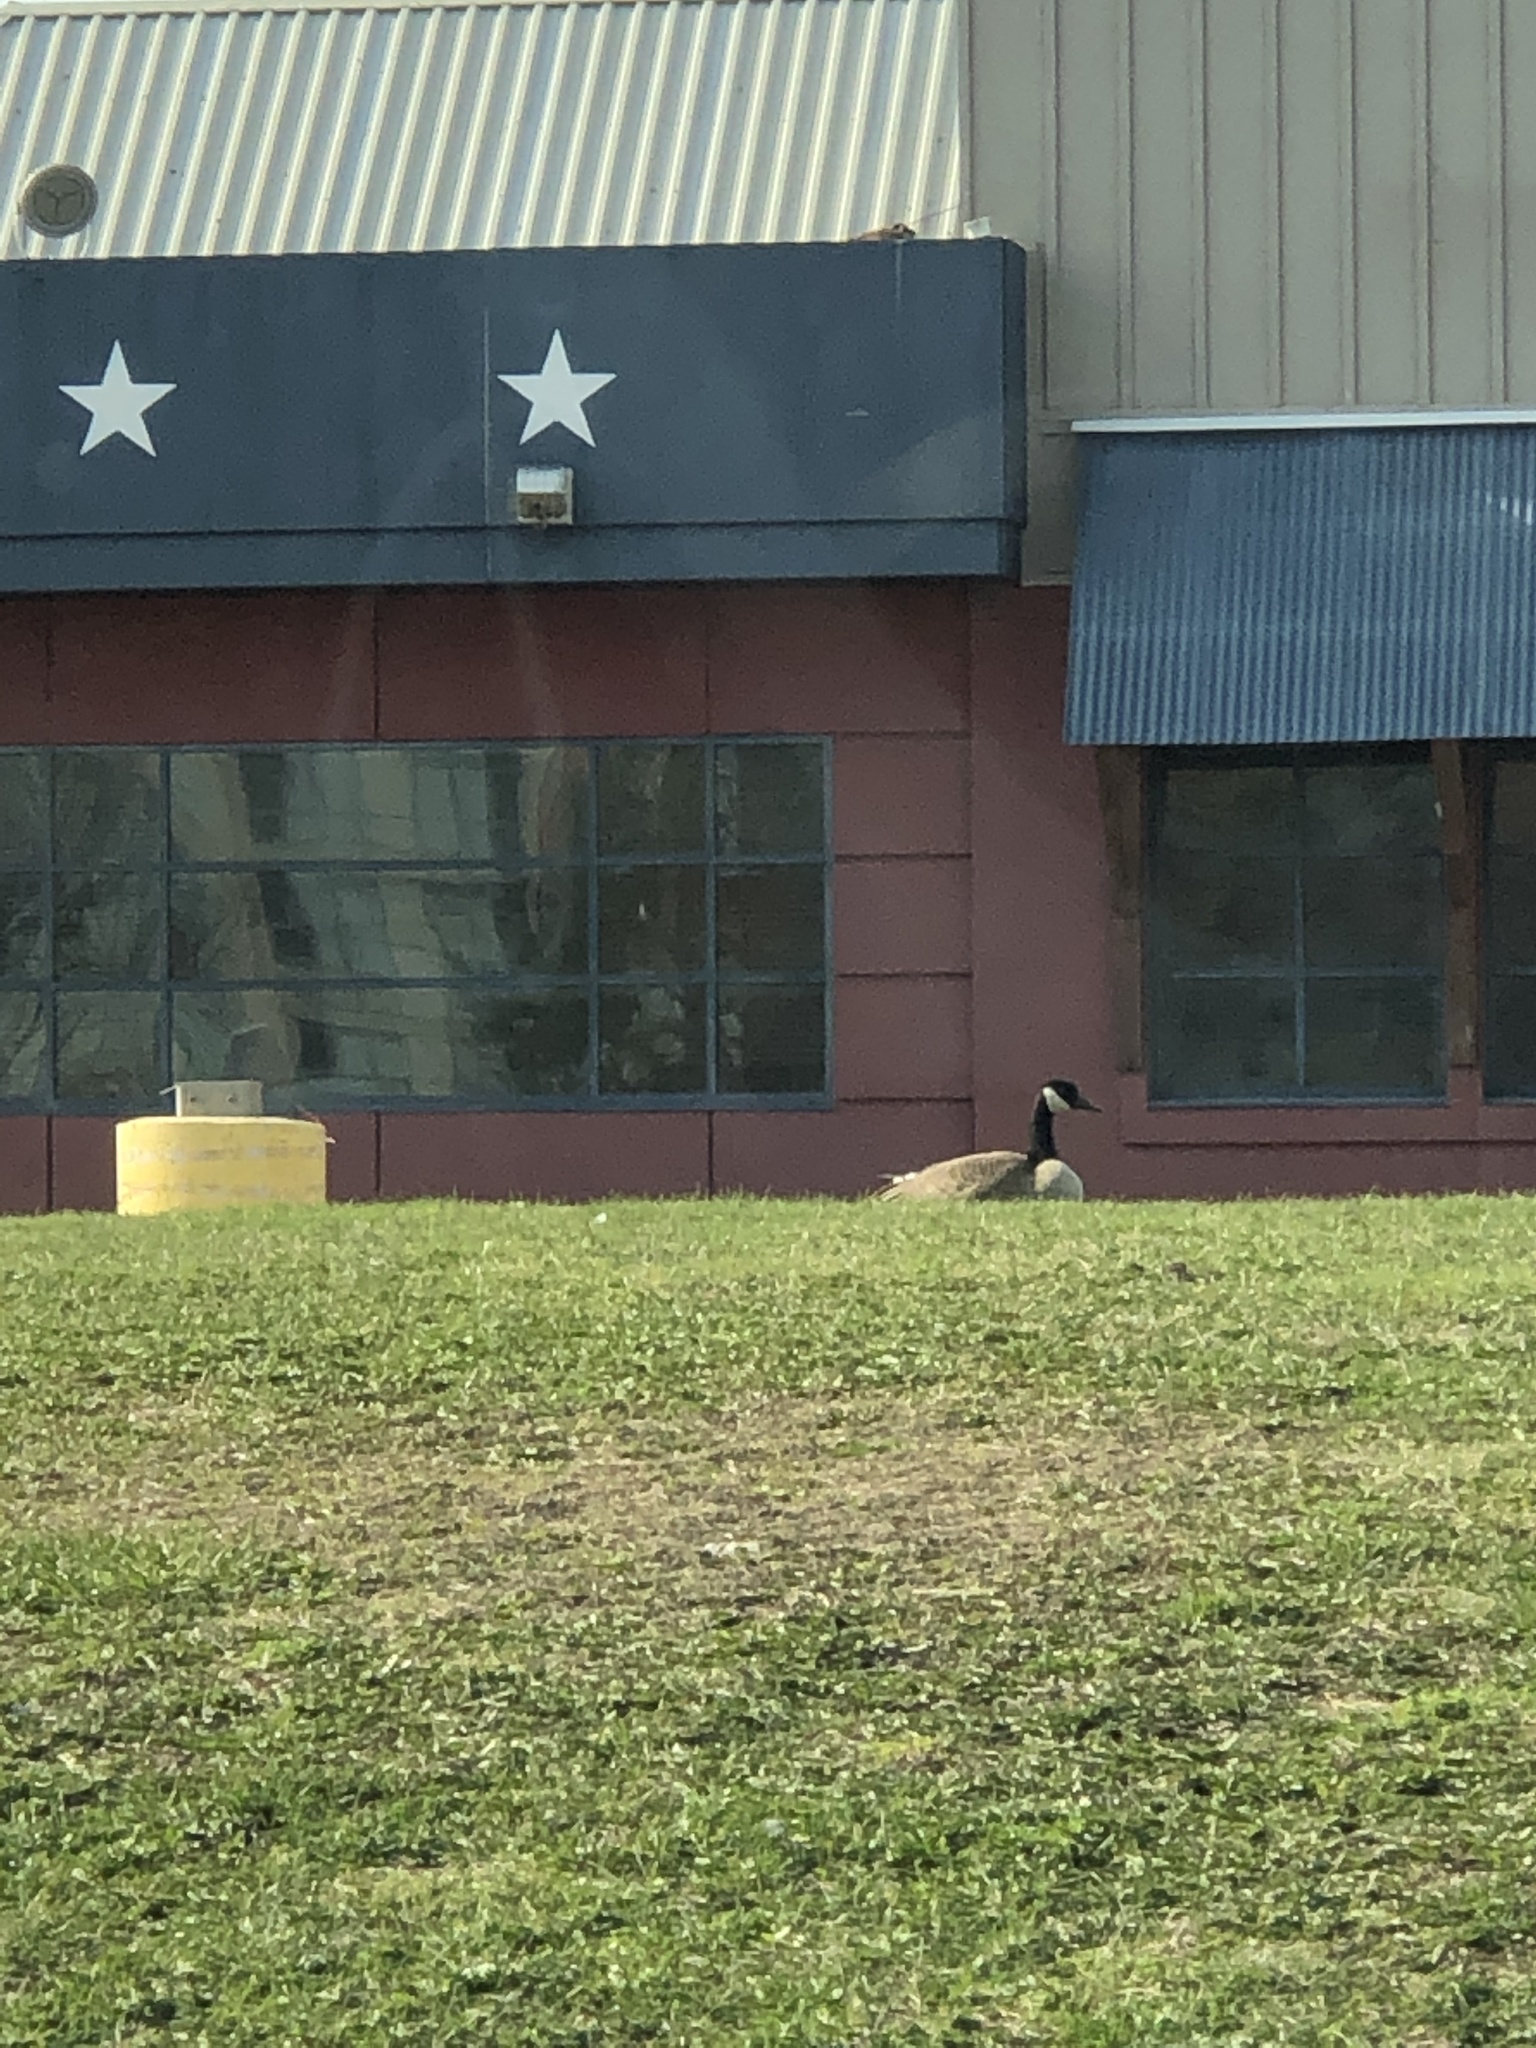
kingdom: Animalia
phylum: Chordata
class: Aves
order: Anseriformes
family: Anatidae
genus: Branta
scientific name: Branta canadensis
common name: Canada goose
